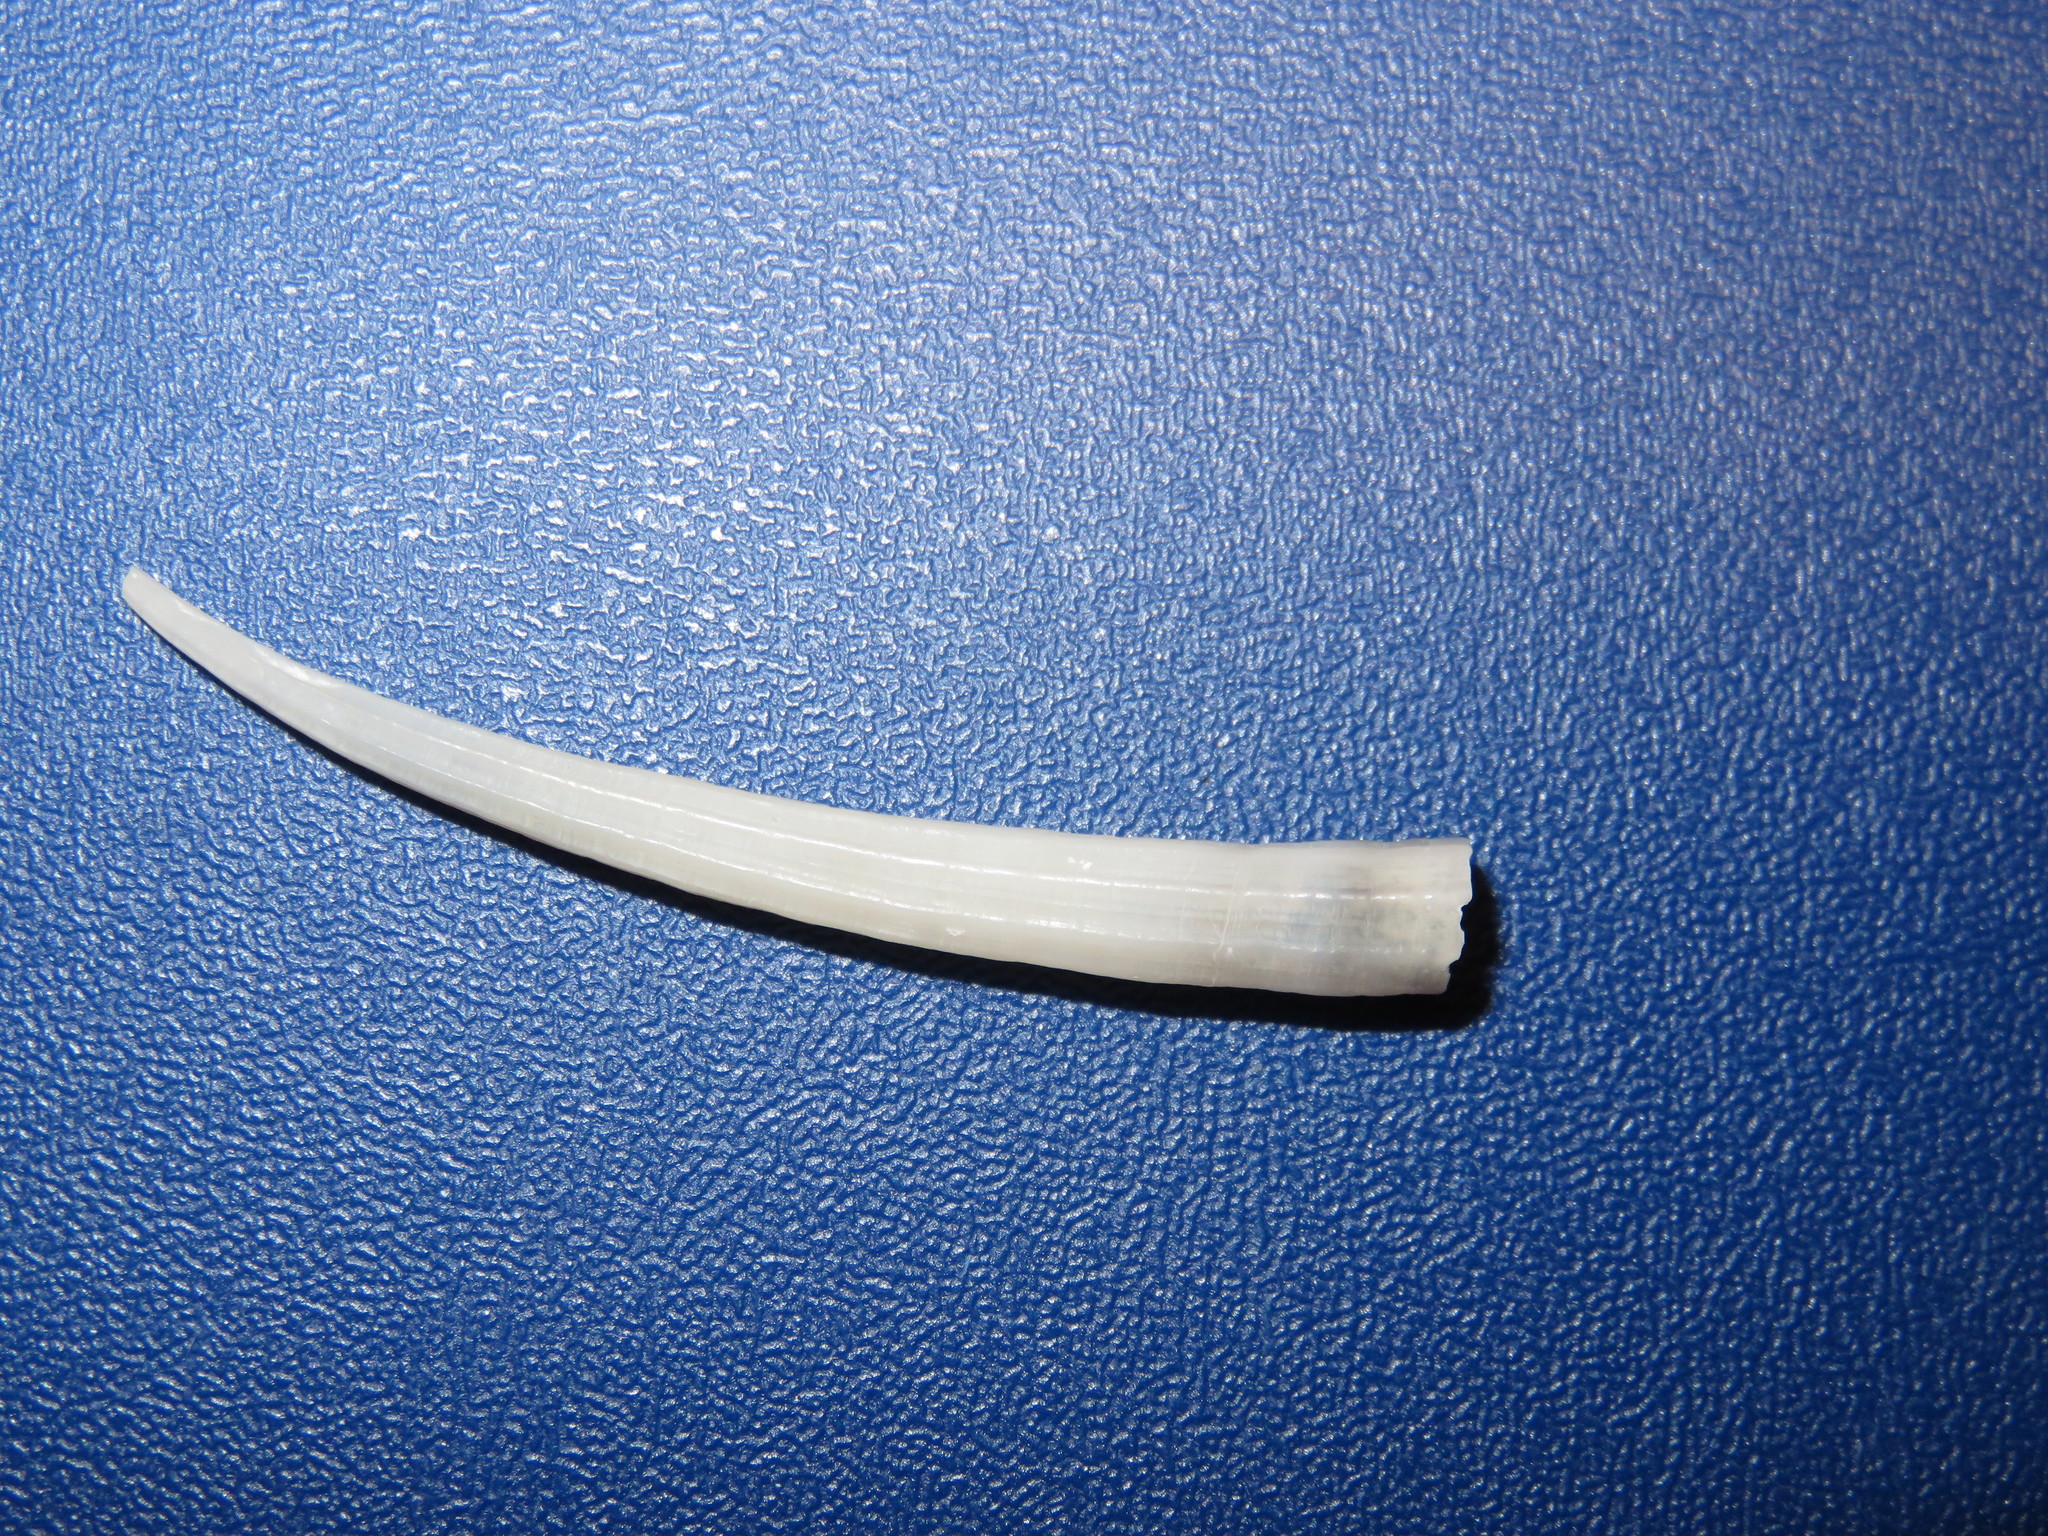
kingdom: Animalia
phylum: Mollusca
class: Scaphopoda
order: Dentaliida
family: Dentaliidae
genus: Dentalium
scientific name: Dentalium octangulatum
